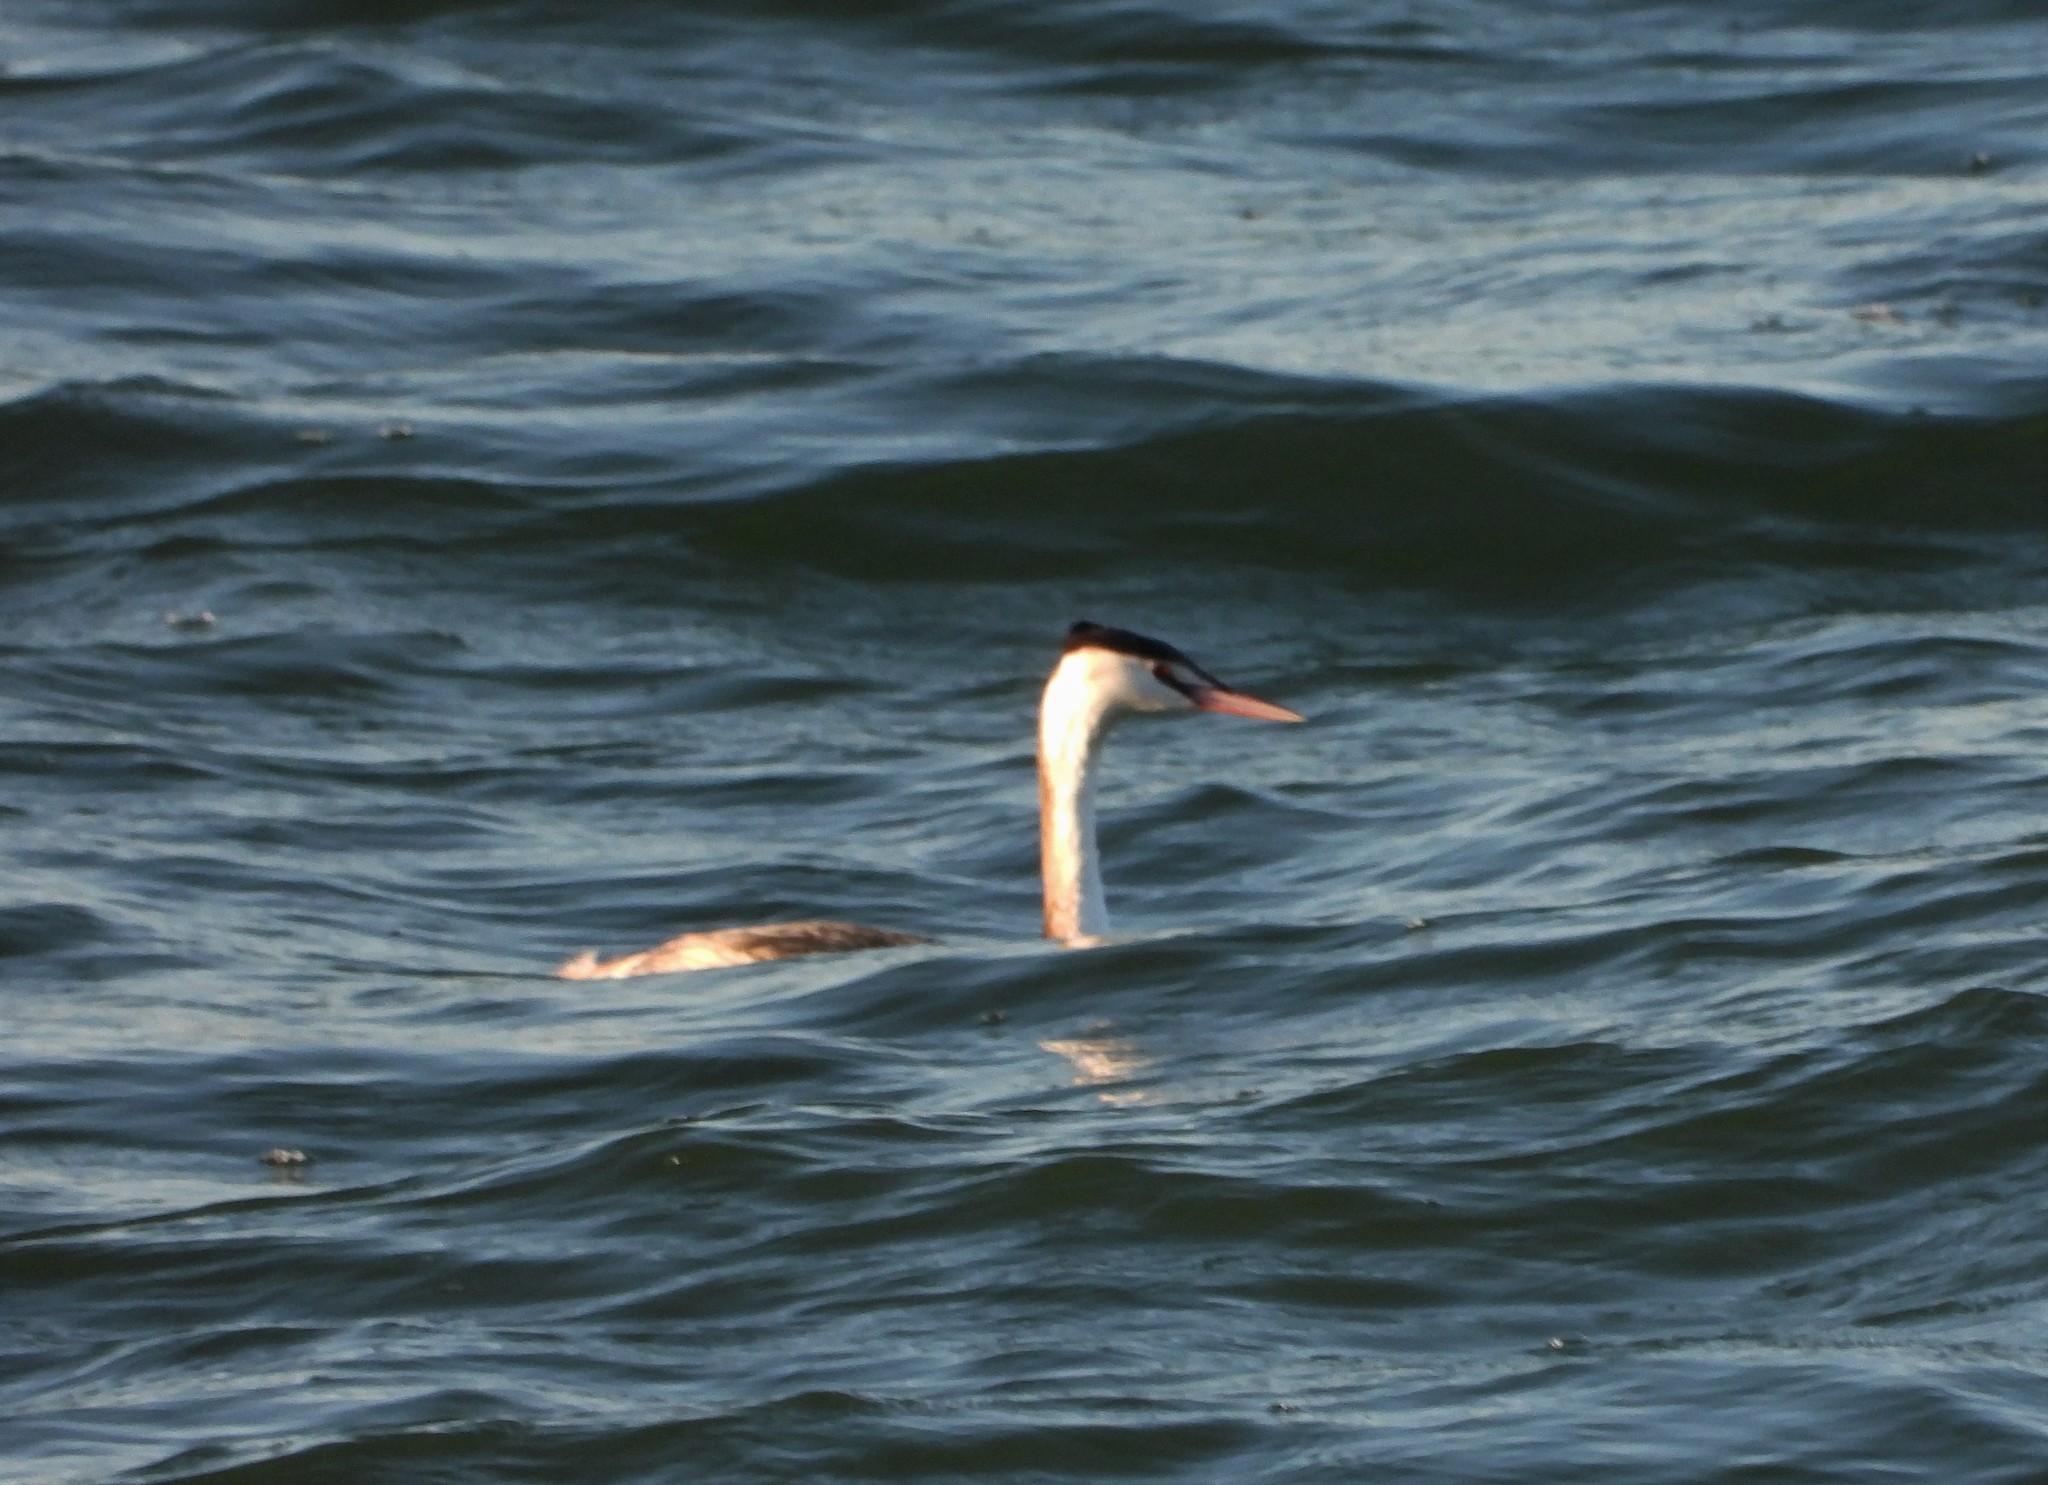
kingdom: Animalia
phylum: Chordata
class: Aves
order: Podicipediformes
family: Podicipedidae
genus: Podiceps
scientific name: Podiceps cristatus
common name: Great crested grebe
